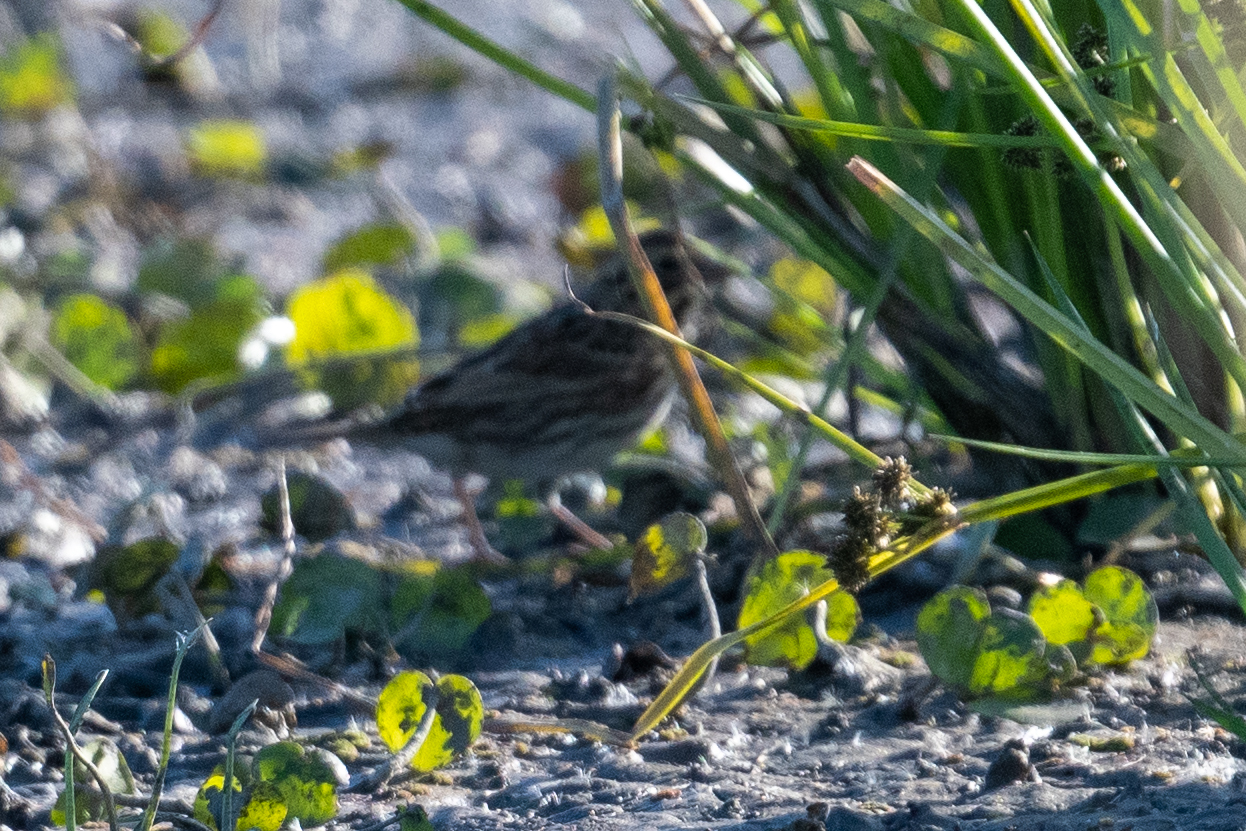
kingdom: Animalia
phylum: Chordata
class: Aves
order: Passeriformes
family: Passerellidae
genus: Passerculus
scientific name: Passerculus sandwichensis
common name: Savannah sparrow
